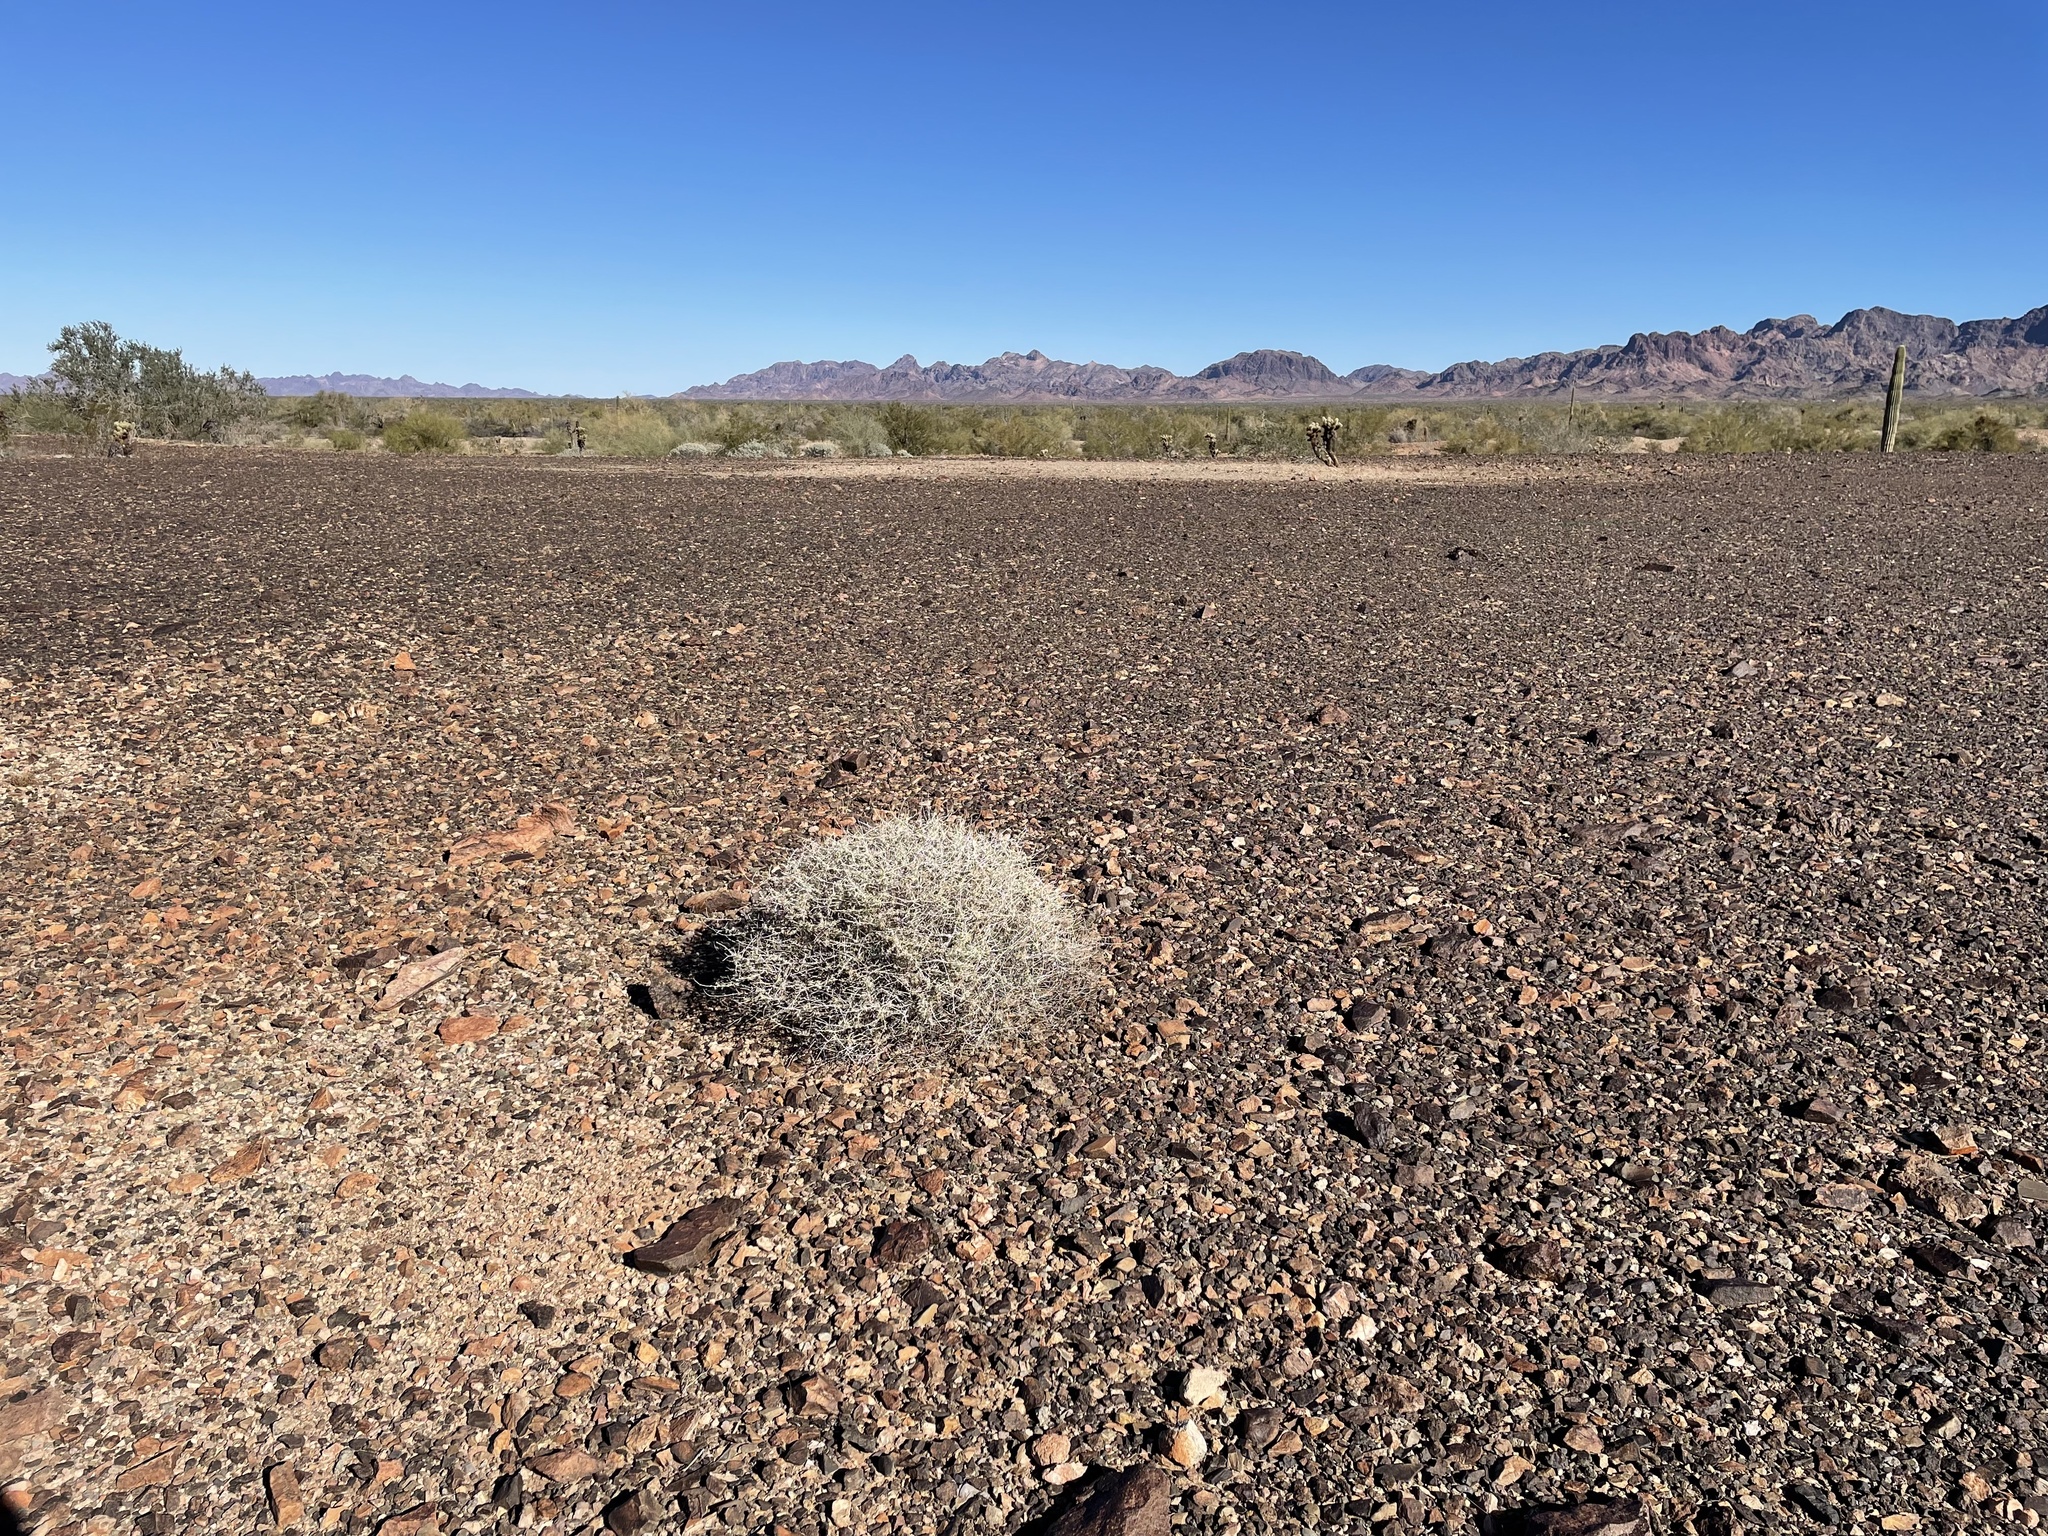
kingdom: Plantae
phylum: Tracheophyta
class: Magnoliopsida
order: Asterales
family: Asteraceae
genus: Ambrosia
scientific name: Ambrosia dumosa
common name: Bur-sage
